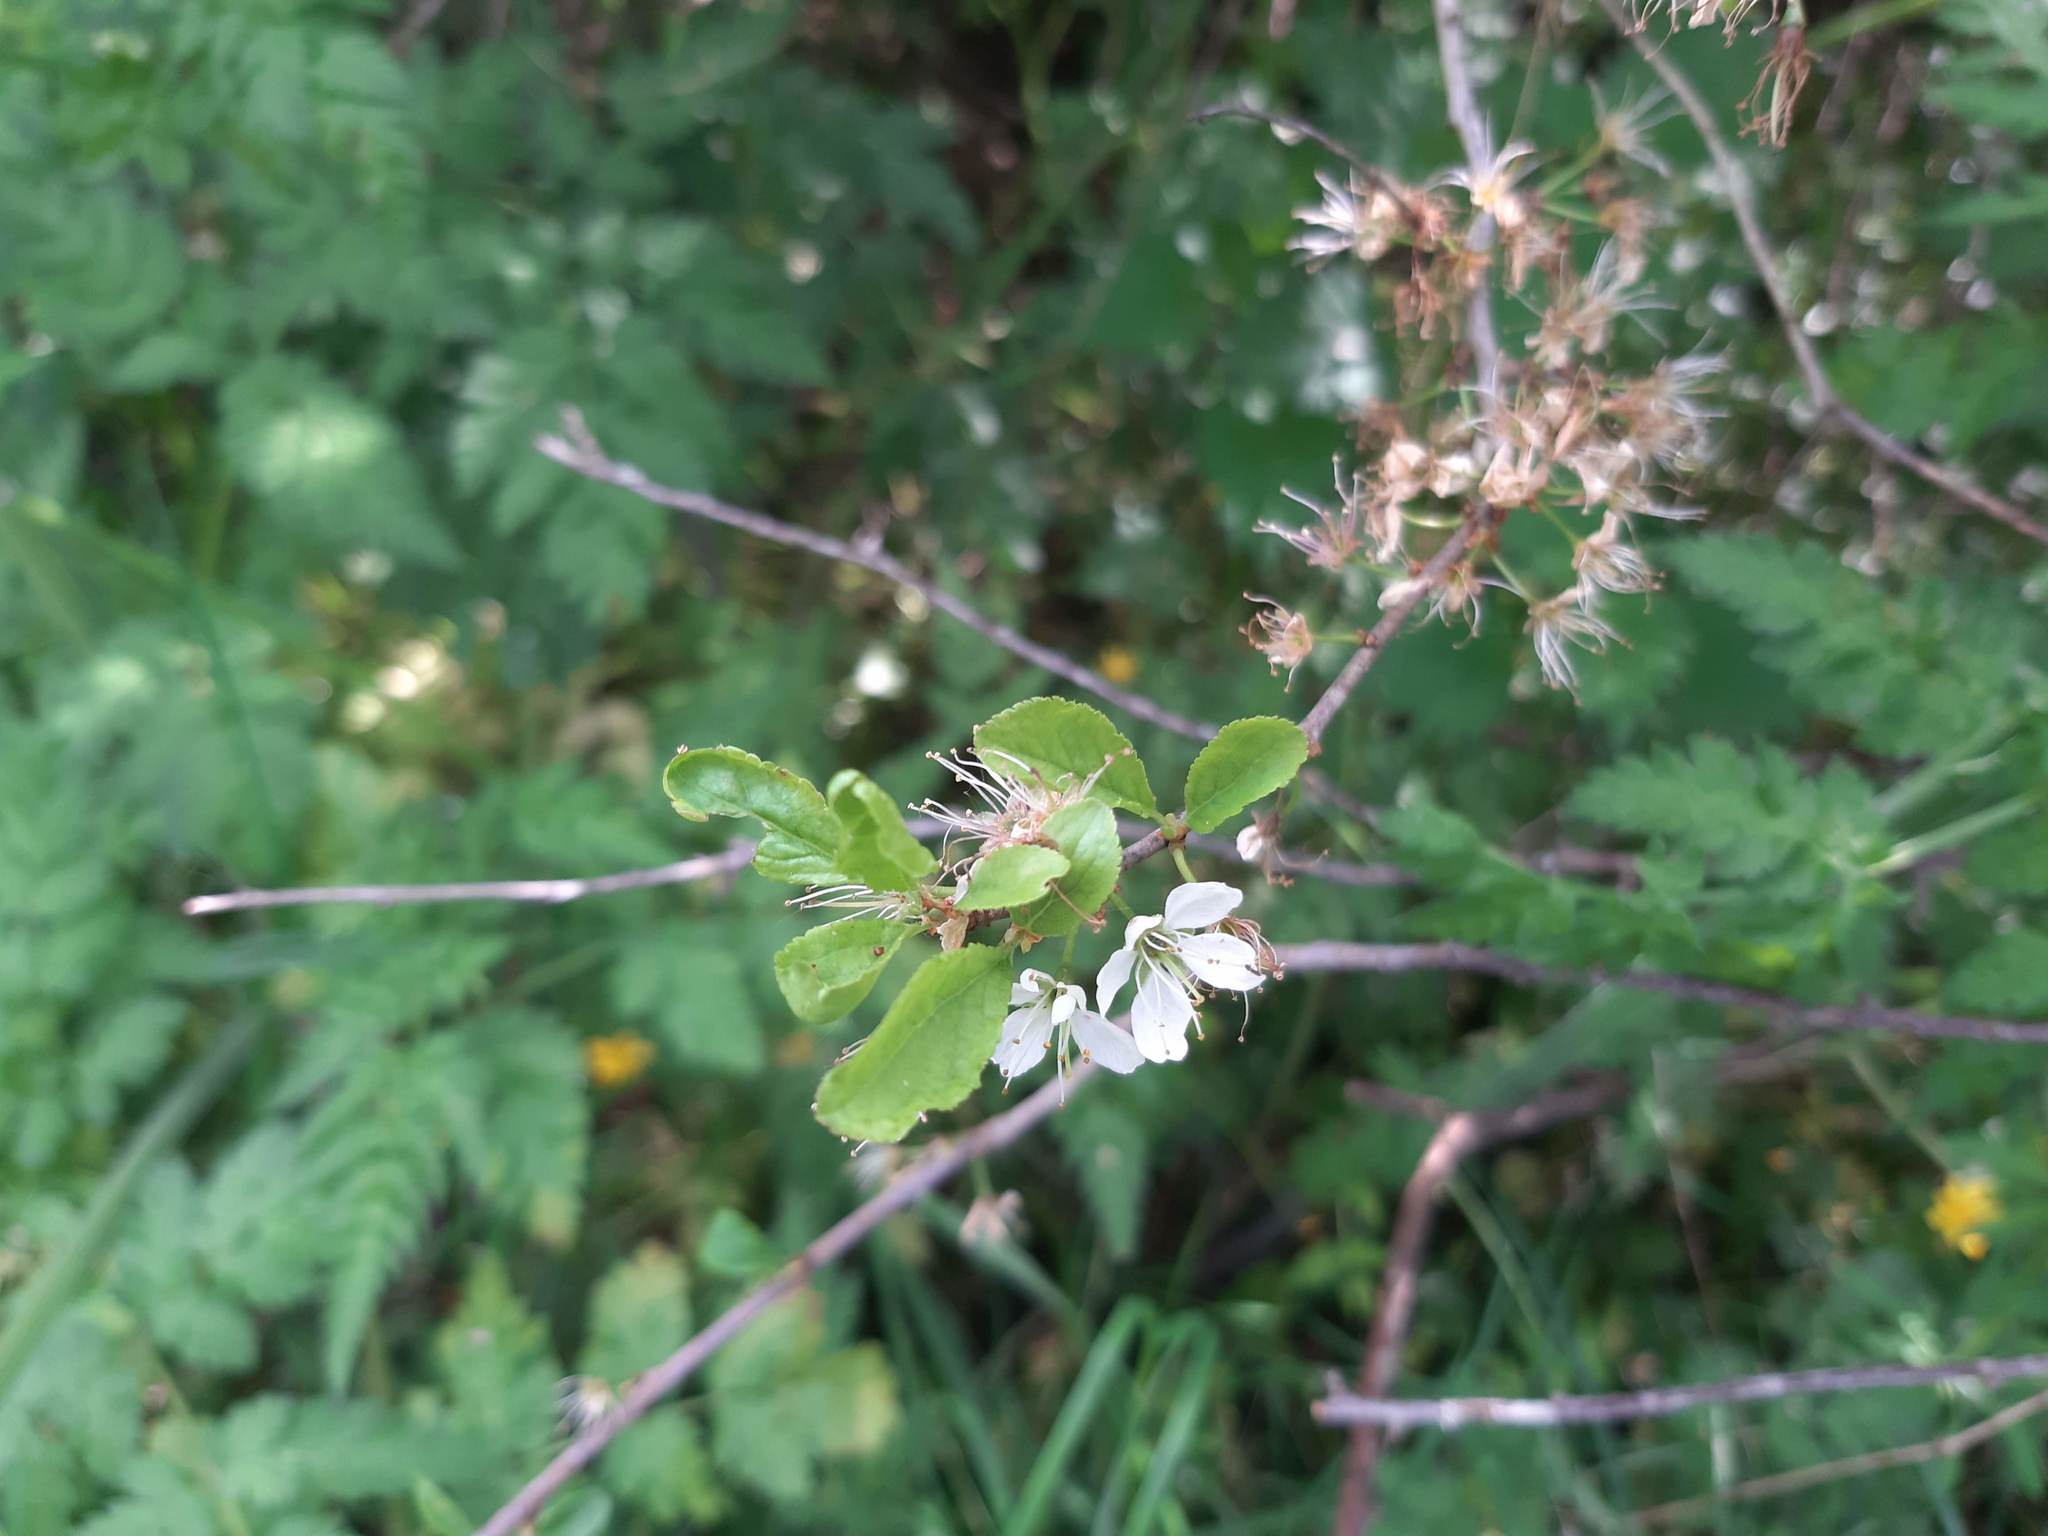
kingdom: Plantae
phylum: Tracheophyta
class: Magnoliopsida
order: Rosales
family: Rosaceae
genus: Prunus
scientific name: Prunus spinosa
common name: Blackthorn
